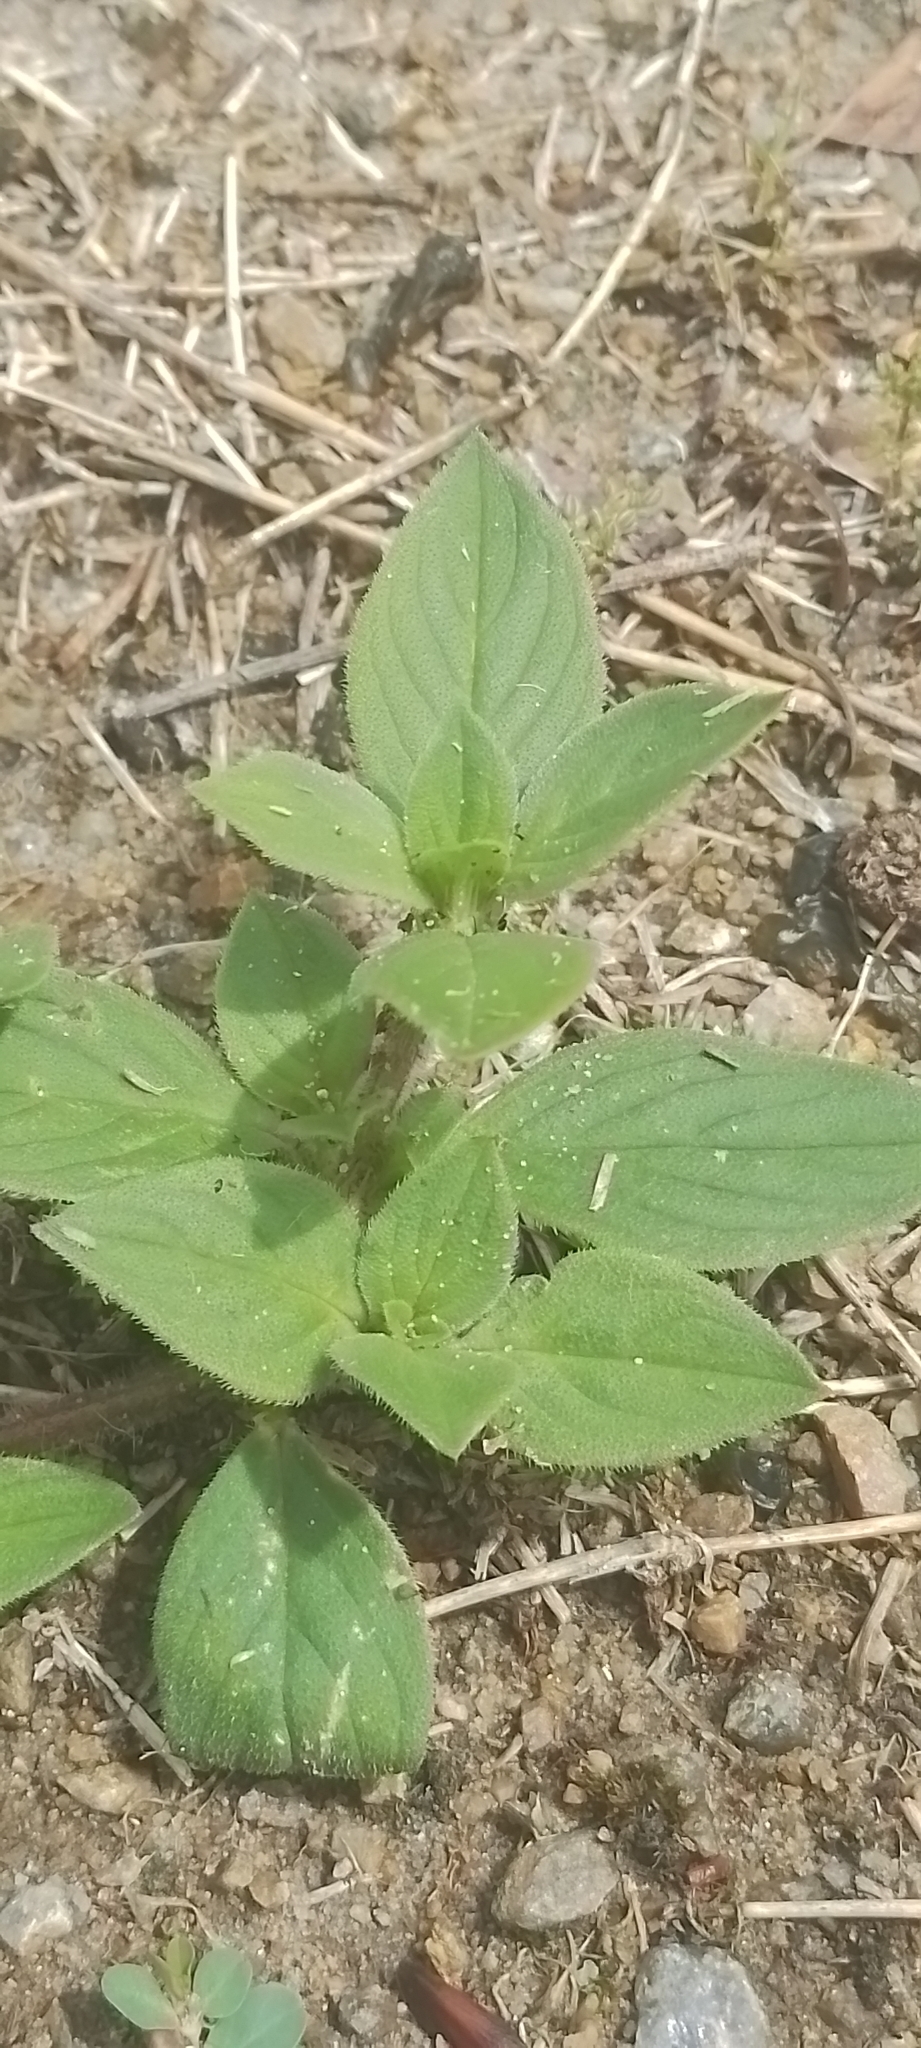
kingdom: Plantae
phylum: Tracheophyta
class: Magnoliopsida
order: Gentianales
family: Rubiaceae
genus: Richardia
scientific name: Richardia brasiliensis
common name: Tropical mexican clover
